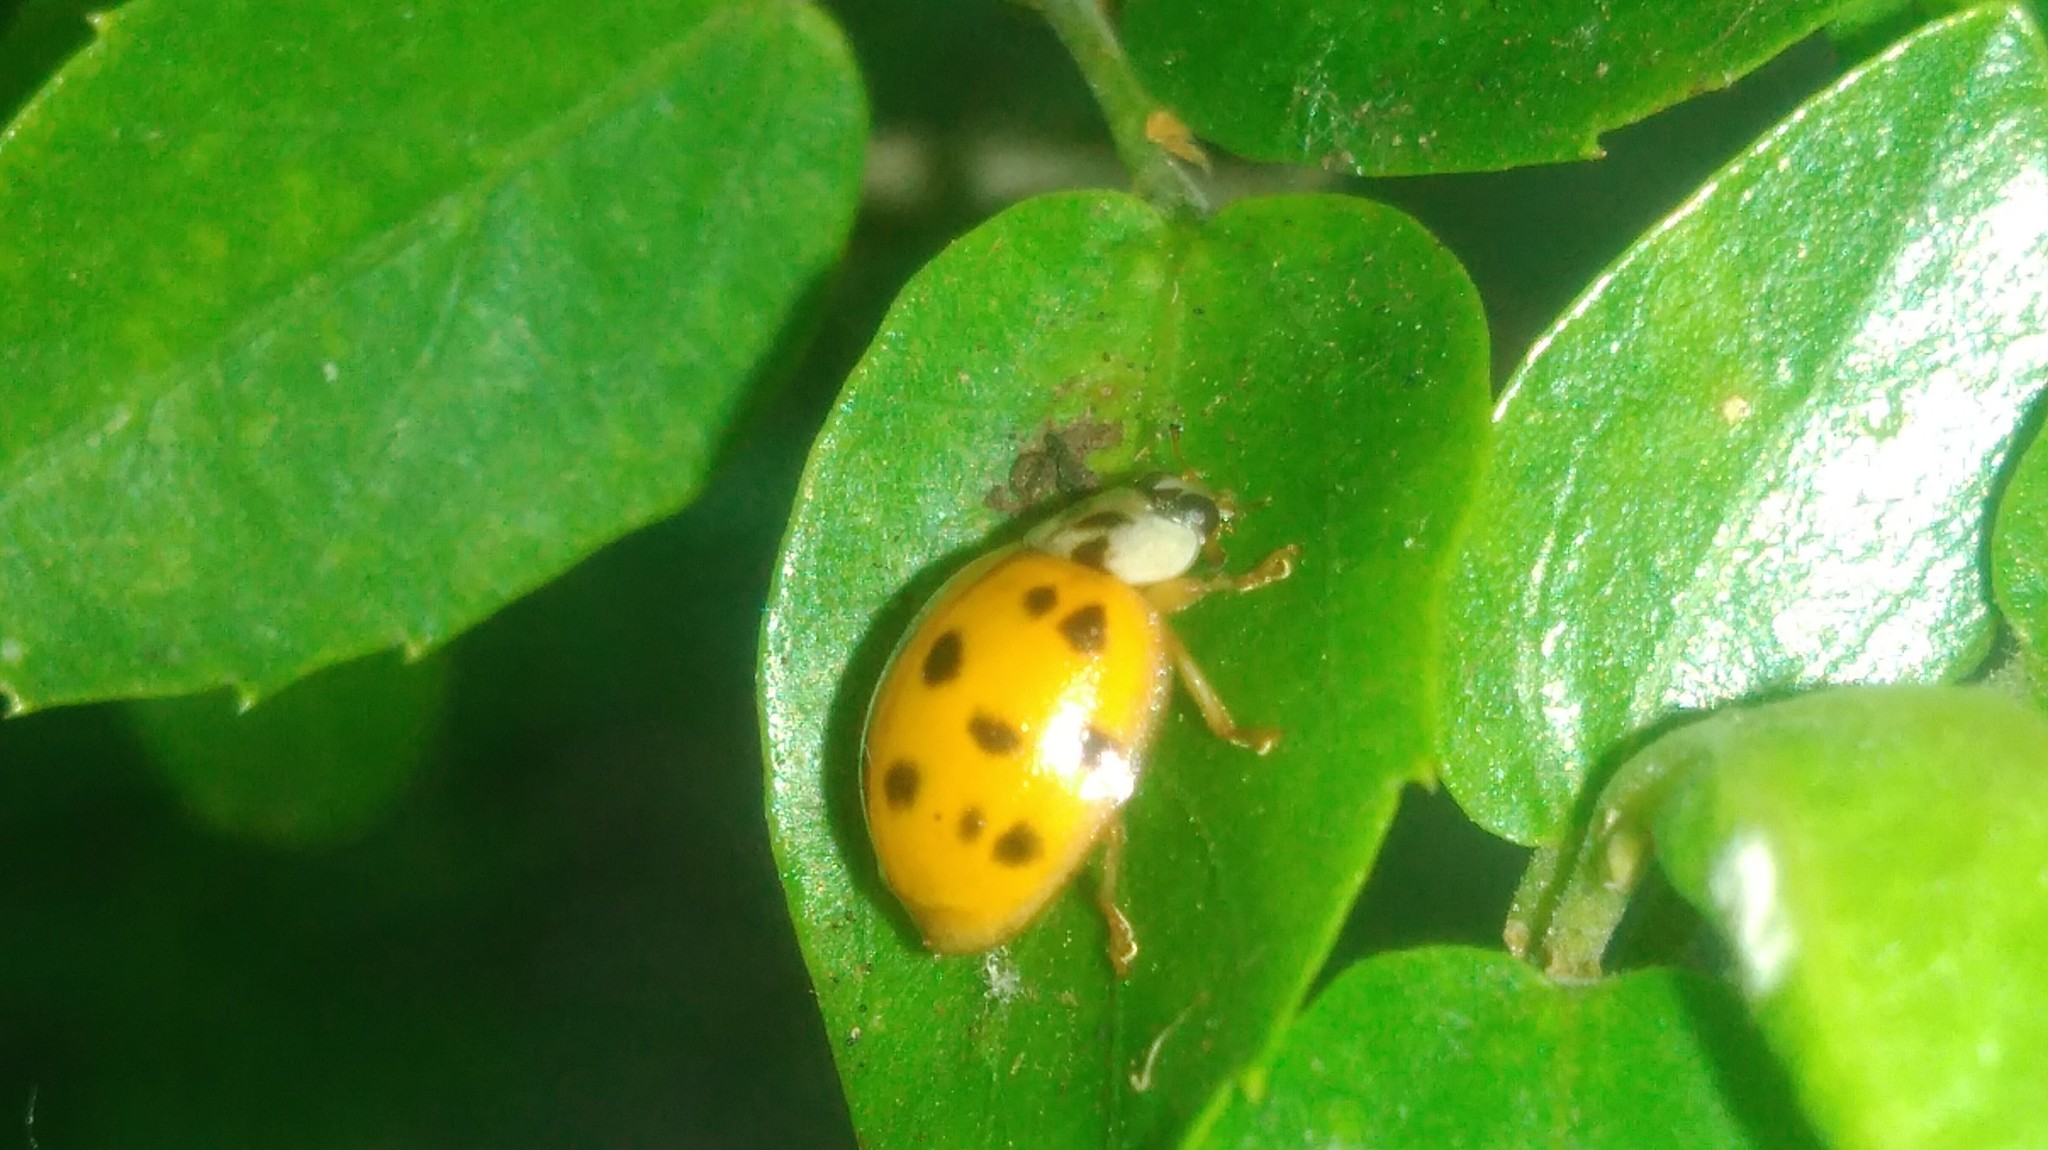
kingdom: Animalia
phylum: Arthropoda
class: Insecta
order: Coleoptera
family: Coccinellidae
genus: Harmonia
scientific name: Harmonia axyridis
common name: Harlequin ladybird
